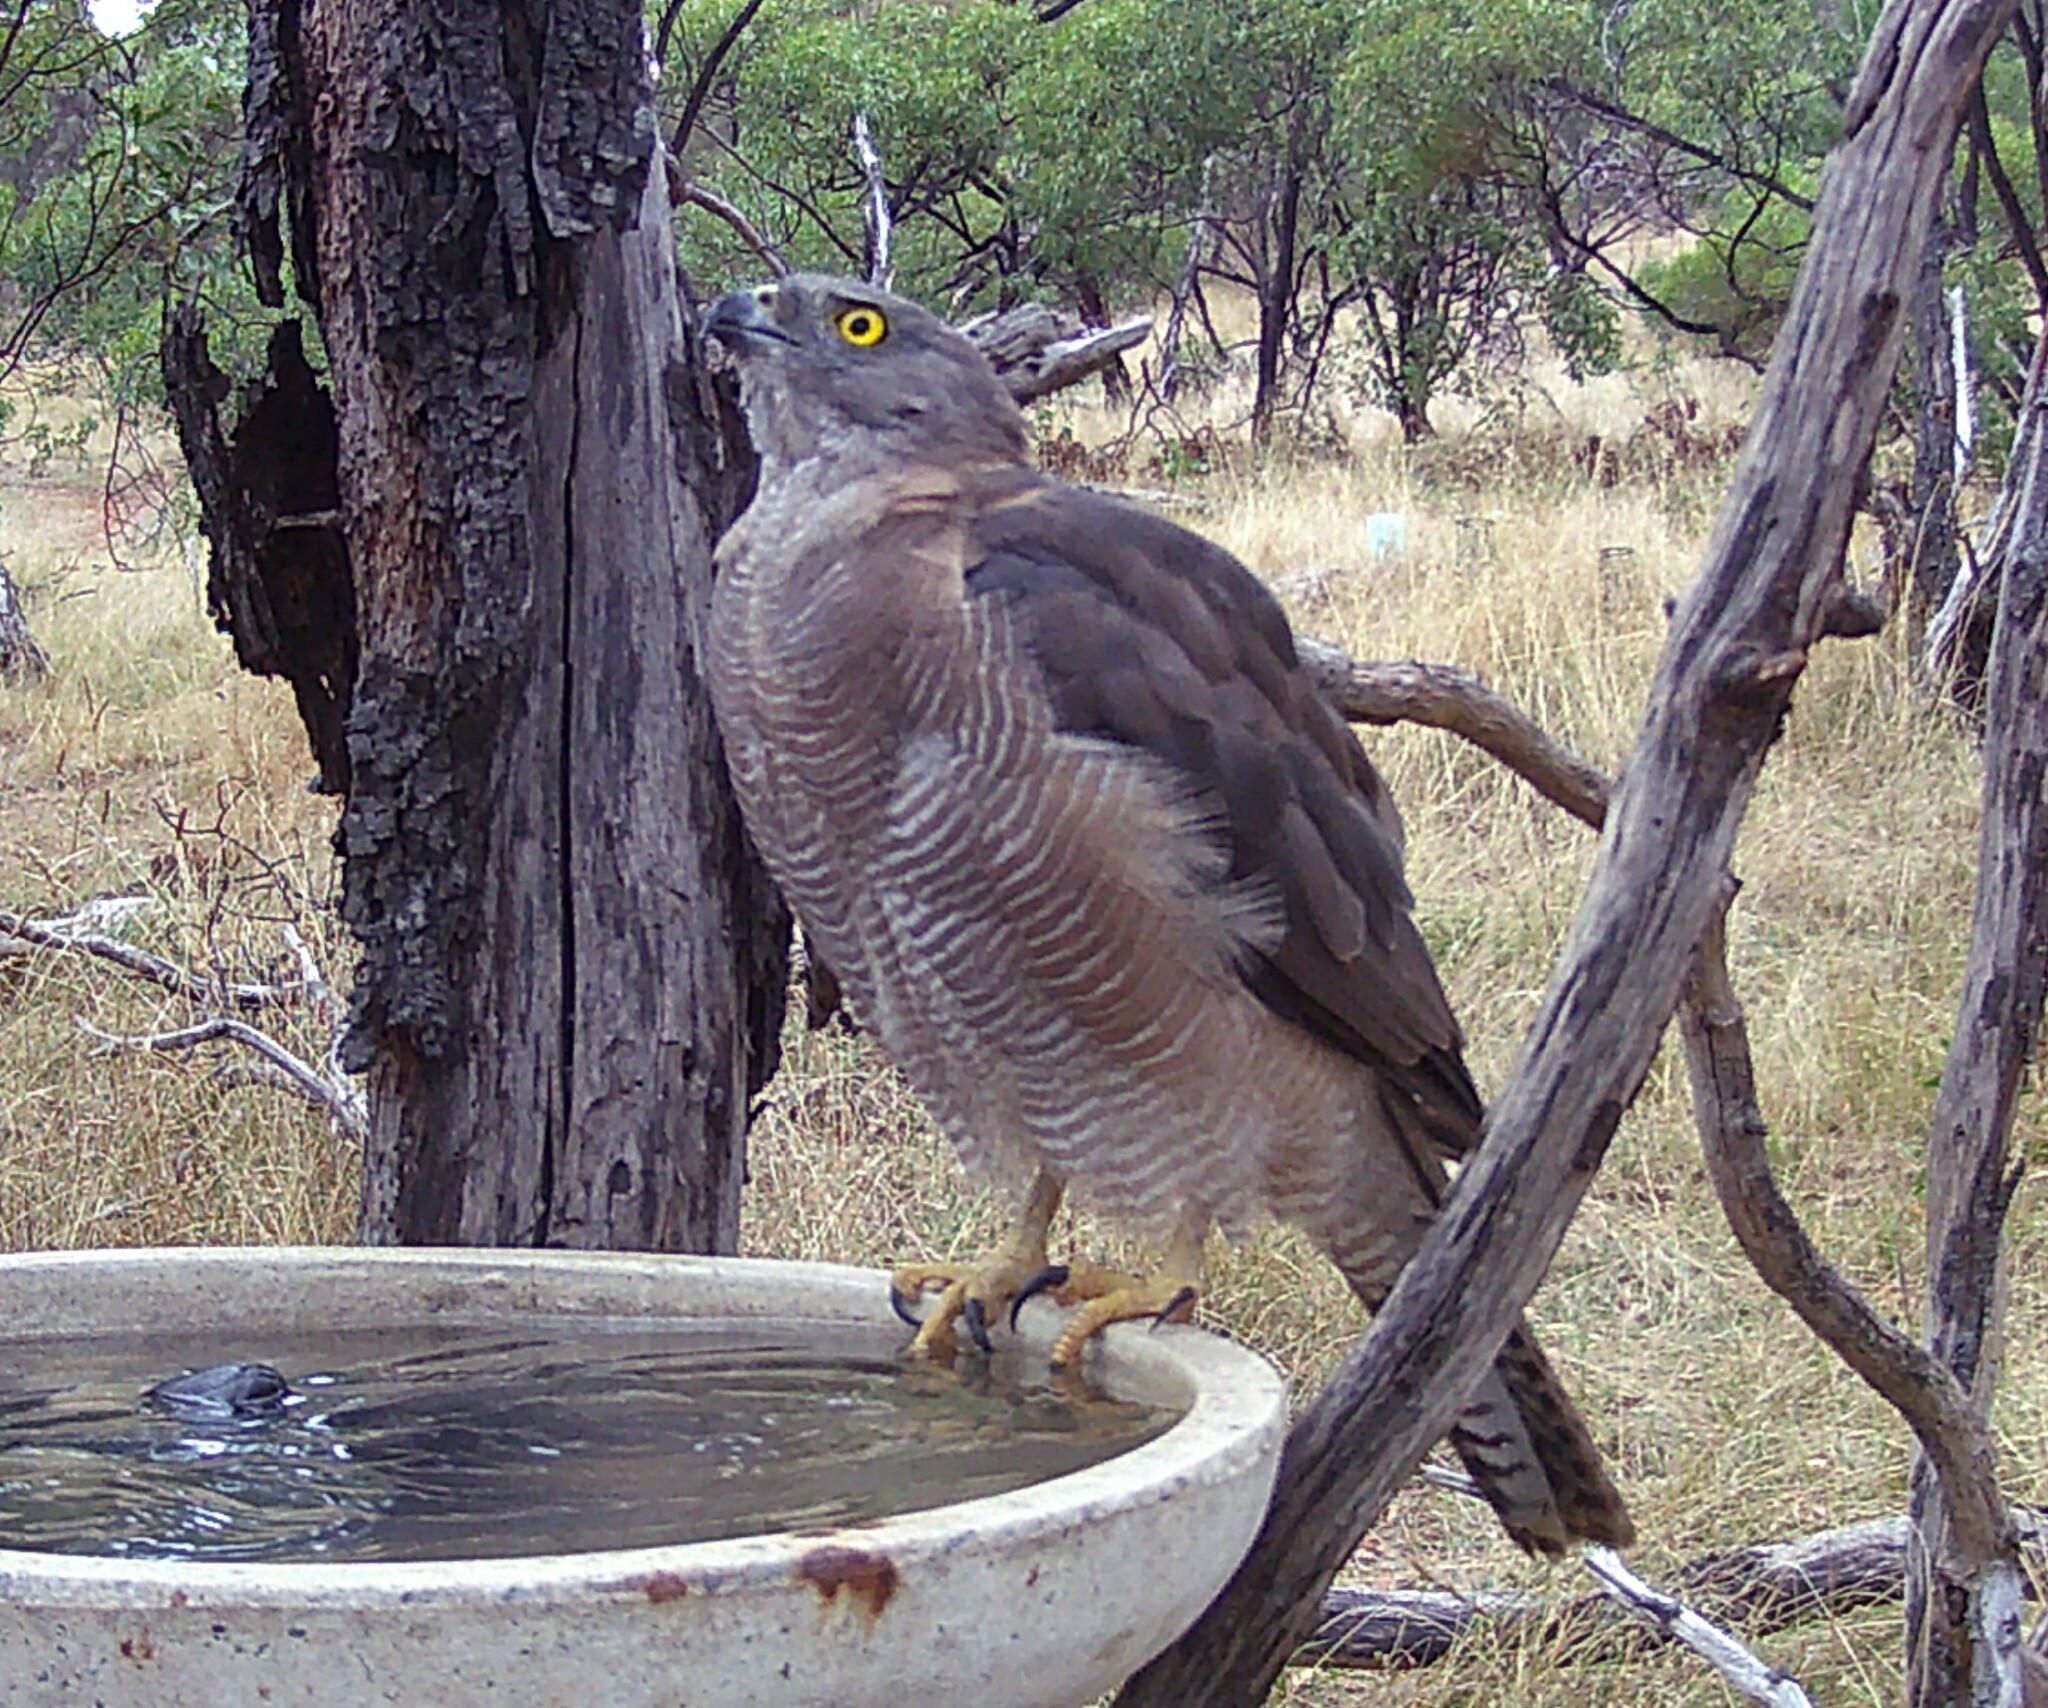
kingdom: Animalia
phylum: Chordata
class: Aves
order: Accipitriformes
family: Accipitridae
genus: Accipiter
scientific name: Accipiter fasciatus
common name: Brown goshawk
